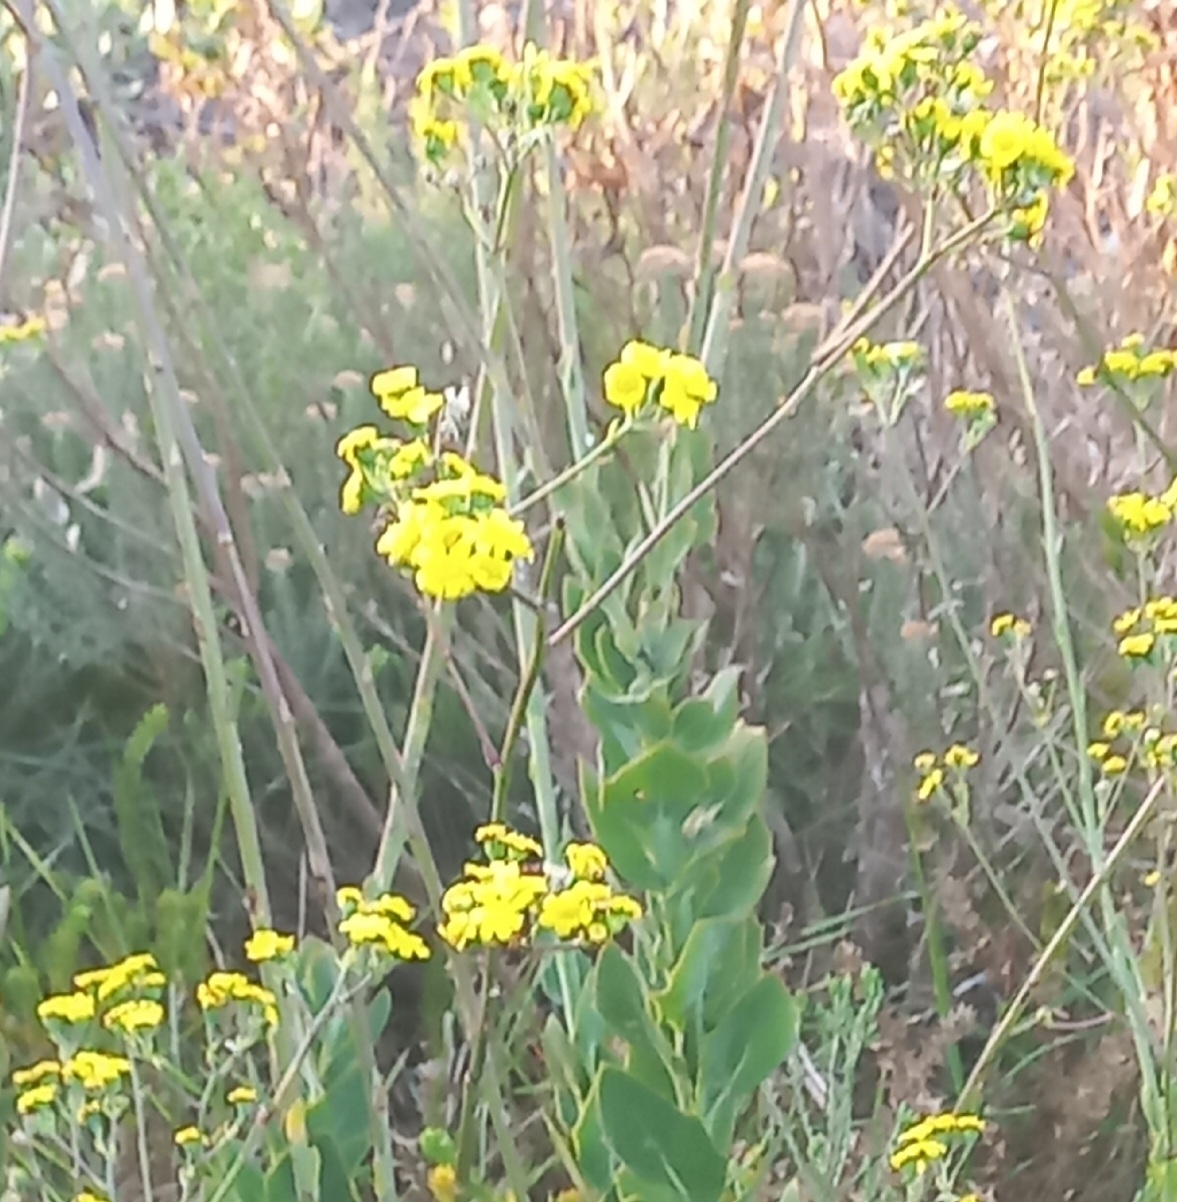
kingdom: Plantae
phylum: Tracheophyta
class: Magnoliopsida
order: Asterales
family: Asteraceae
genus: Othonna
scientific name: Othonna quinquedentata
